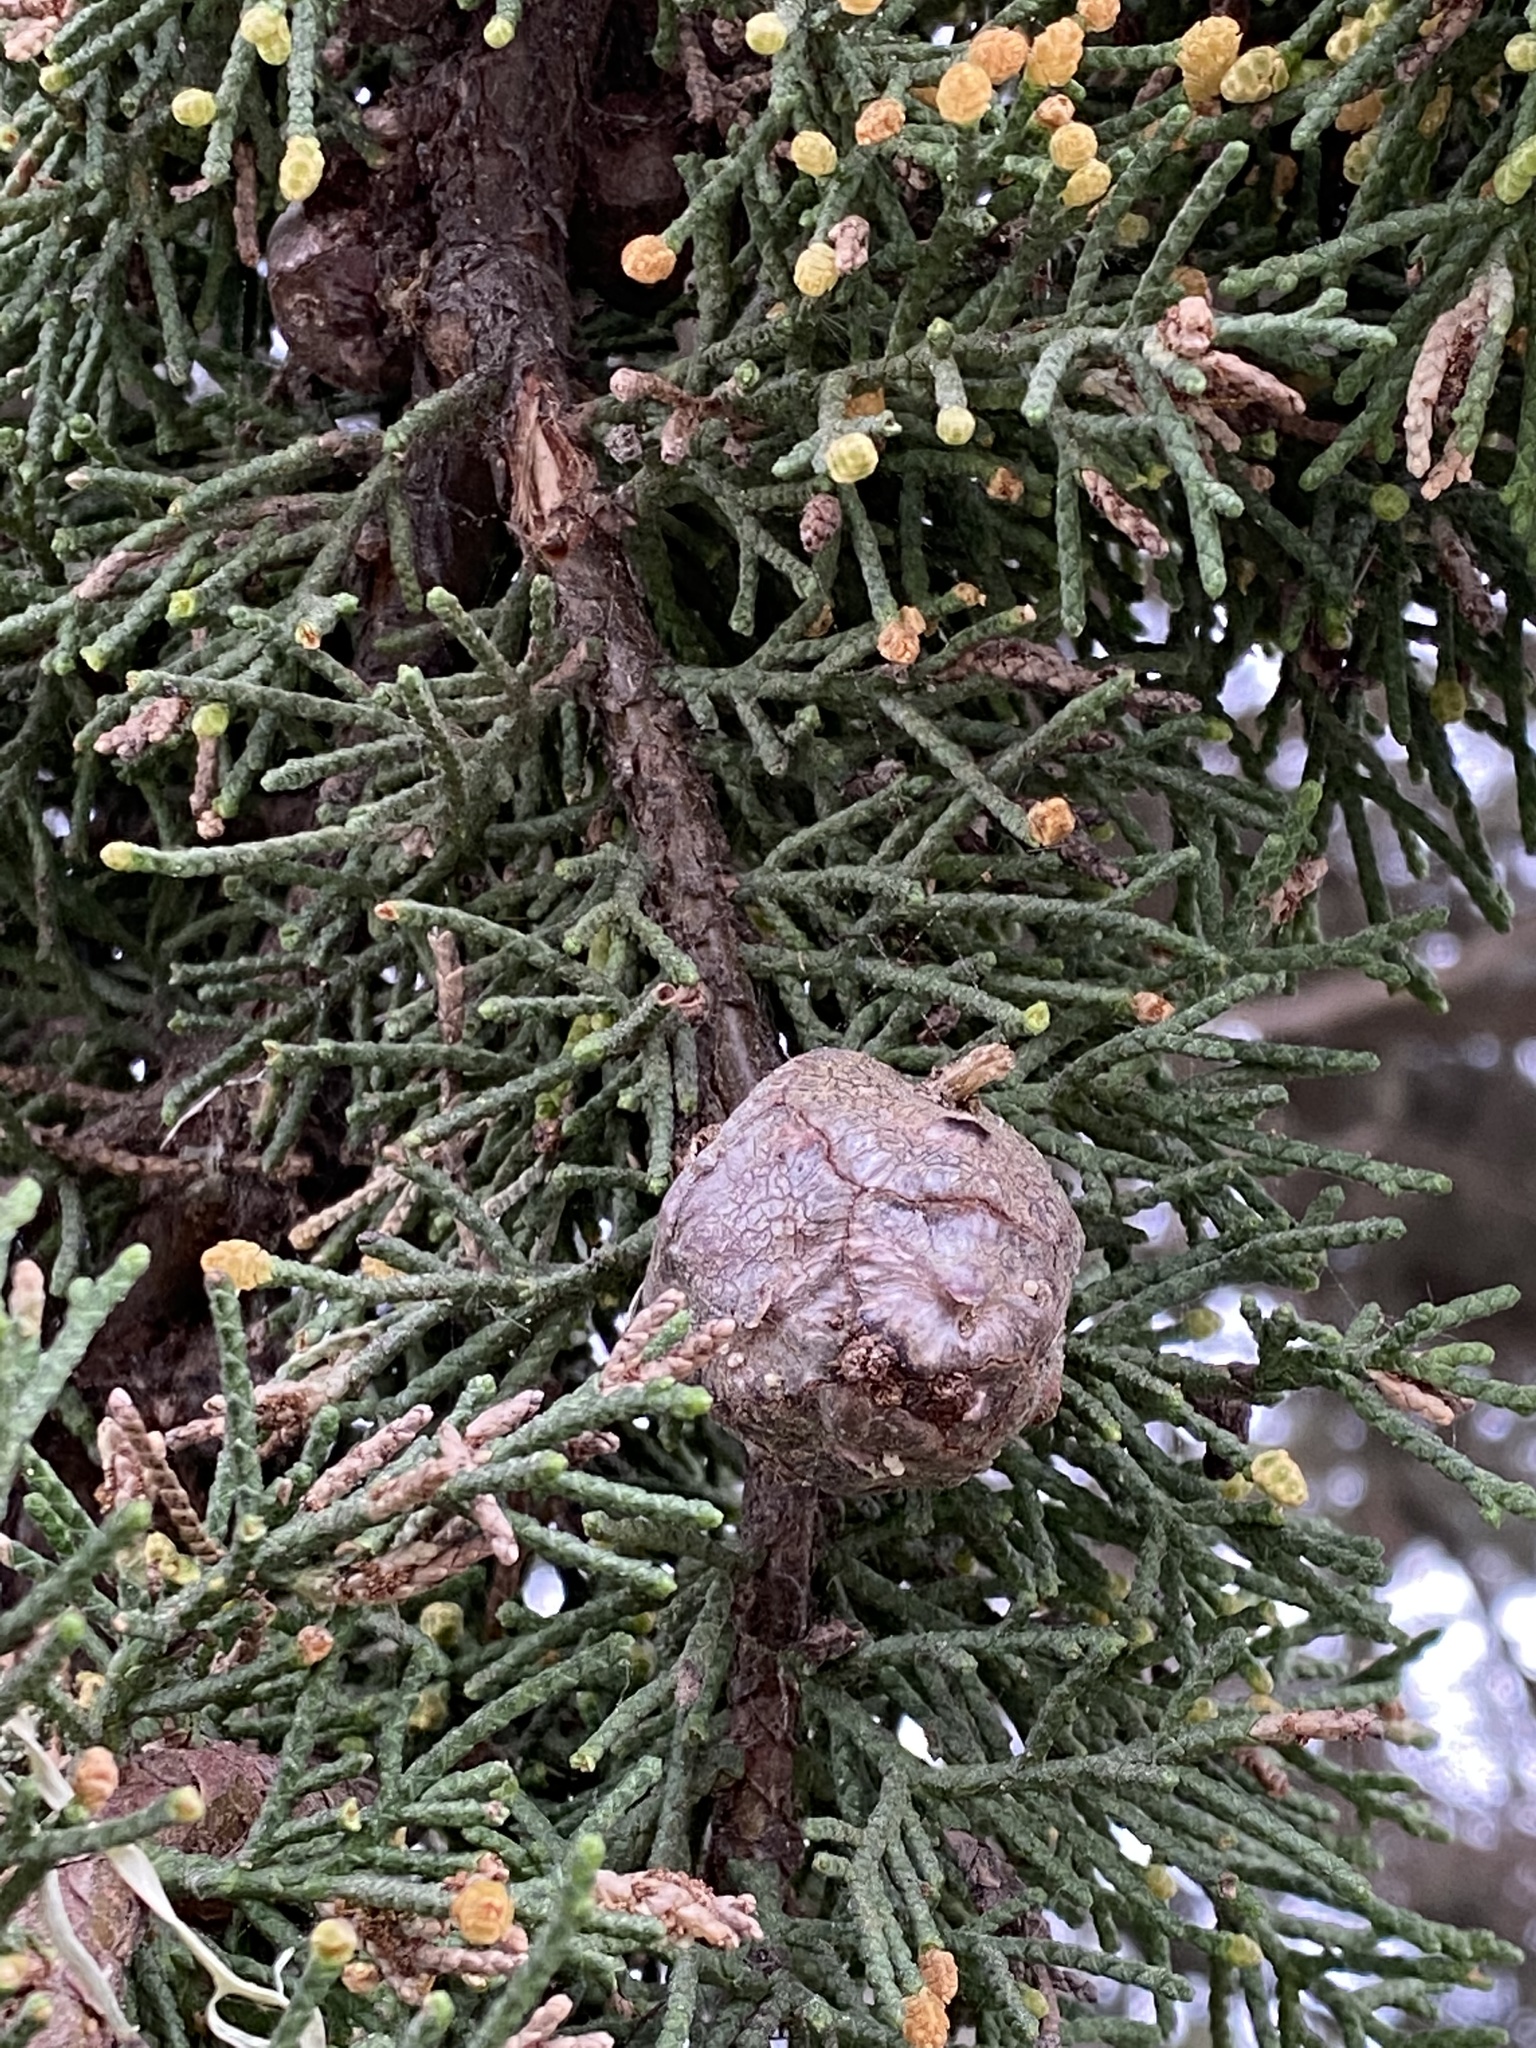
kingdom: Plantae
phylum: Tracheophyta
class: Pinopsida
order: Pinales
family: Cupressaceae
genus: Cupressus
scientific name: Cupressus macrocarpa
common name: Monterey cypress
